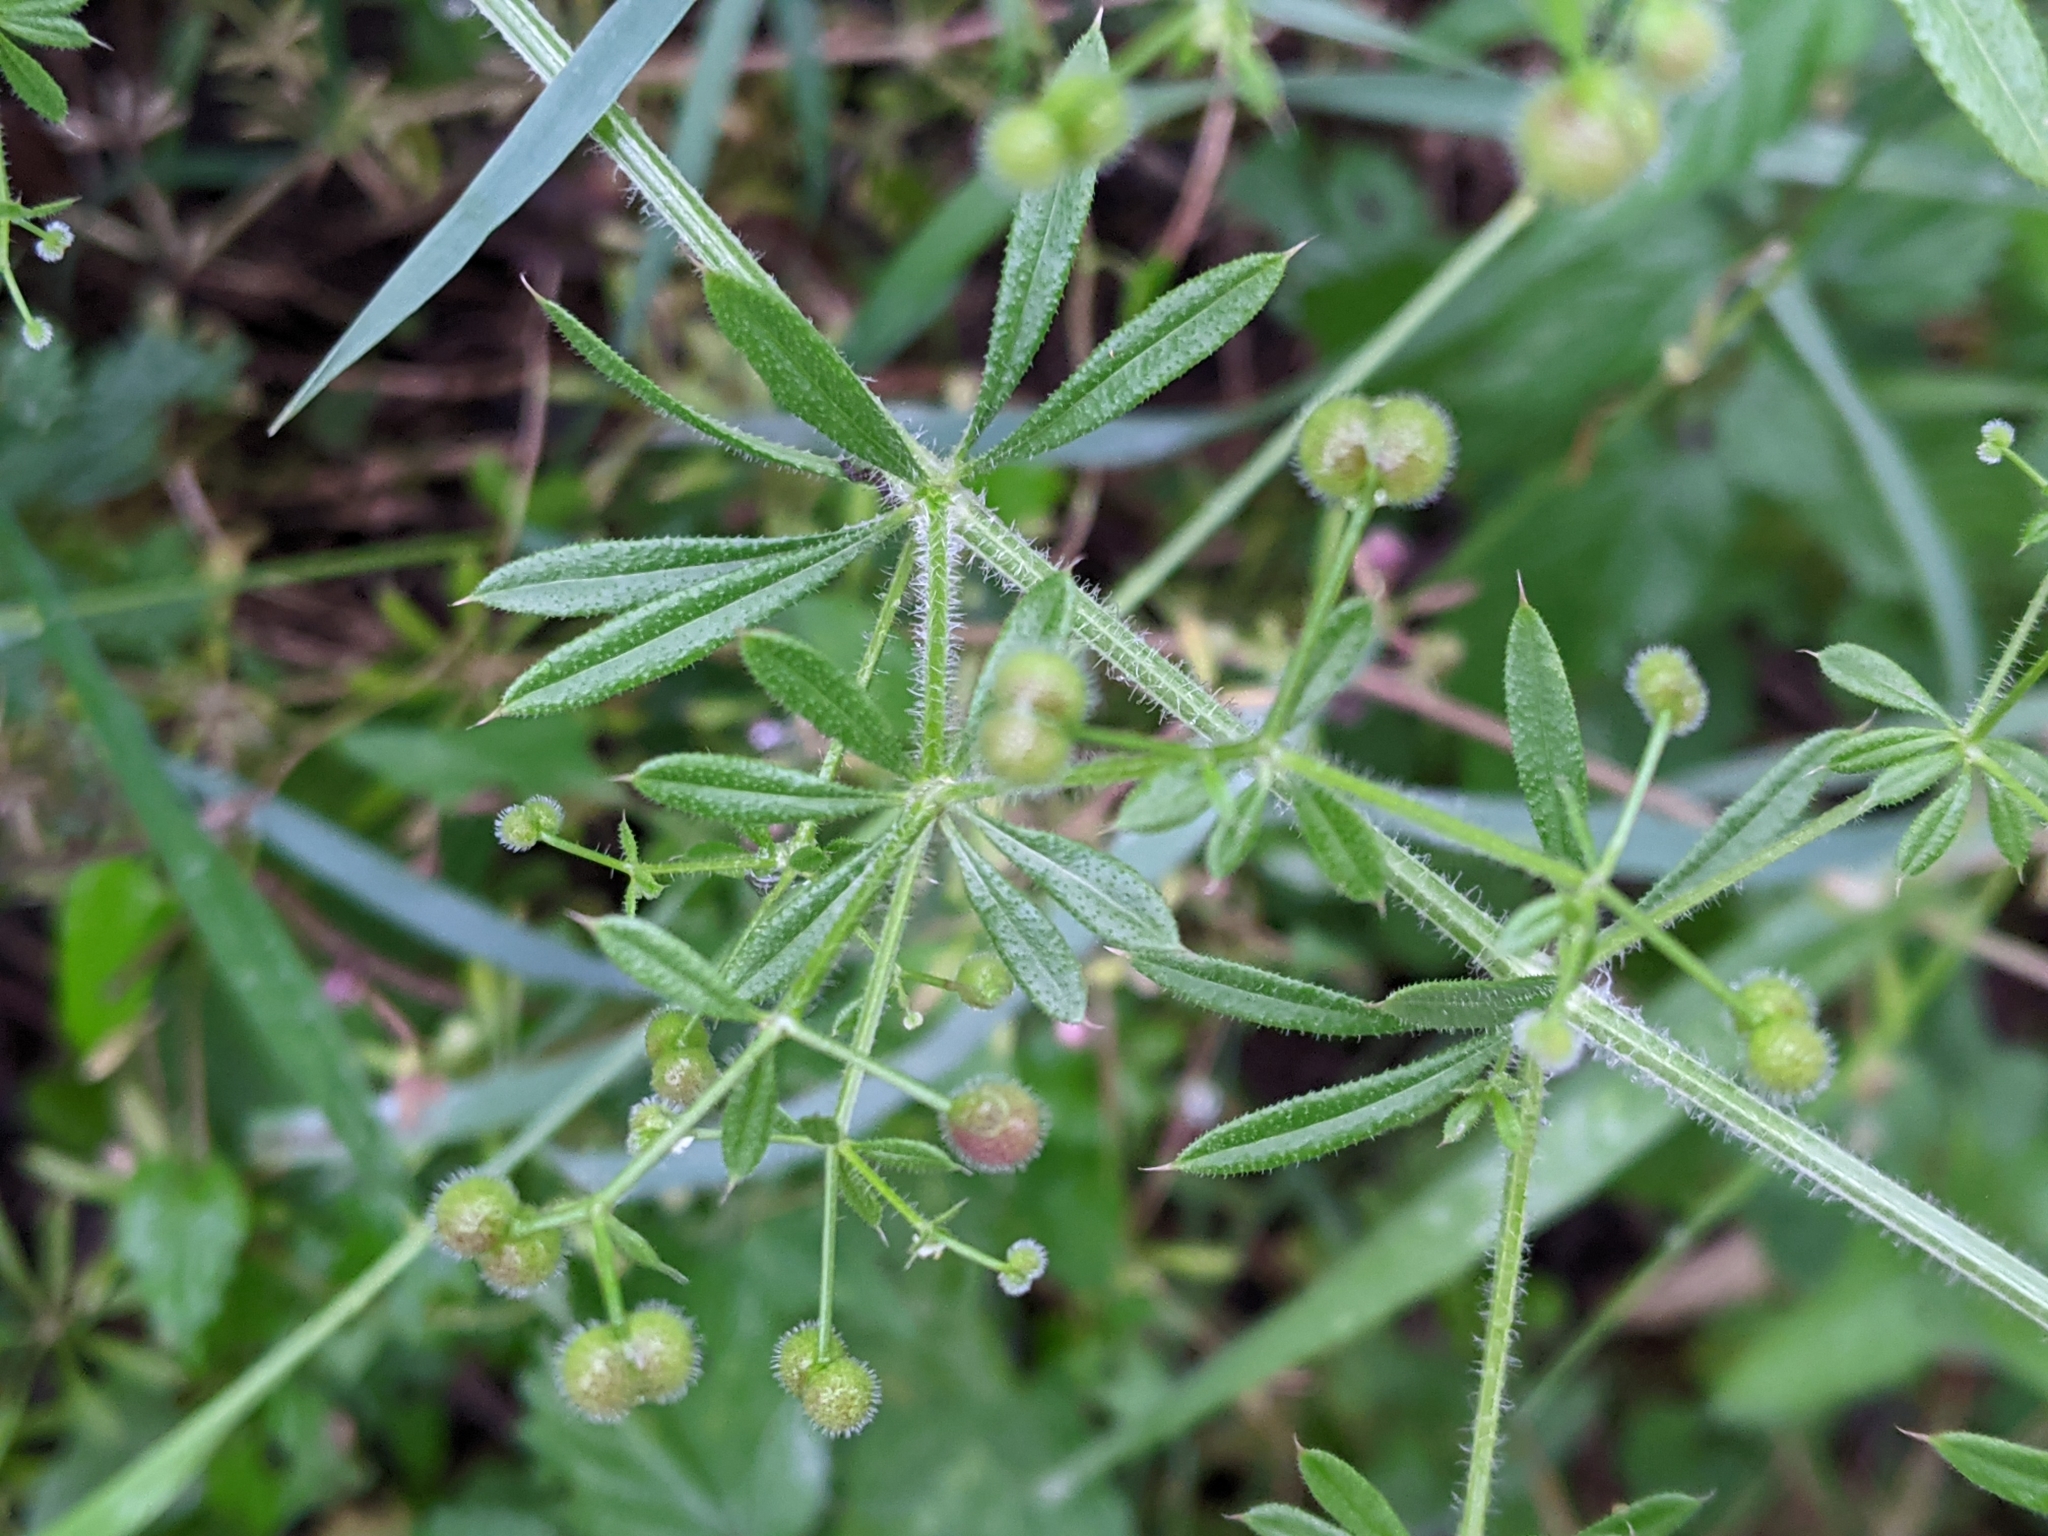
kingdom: Plantae
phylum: Tracheophyta
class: Magnoliopsida
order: Gentianales
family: Rubiaceae
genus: Galium
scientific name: Galium aparine
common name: Cleavers
